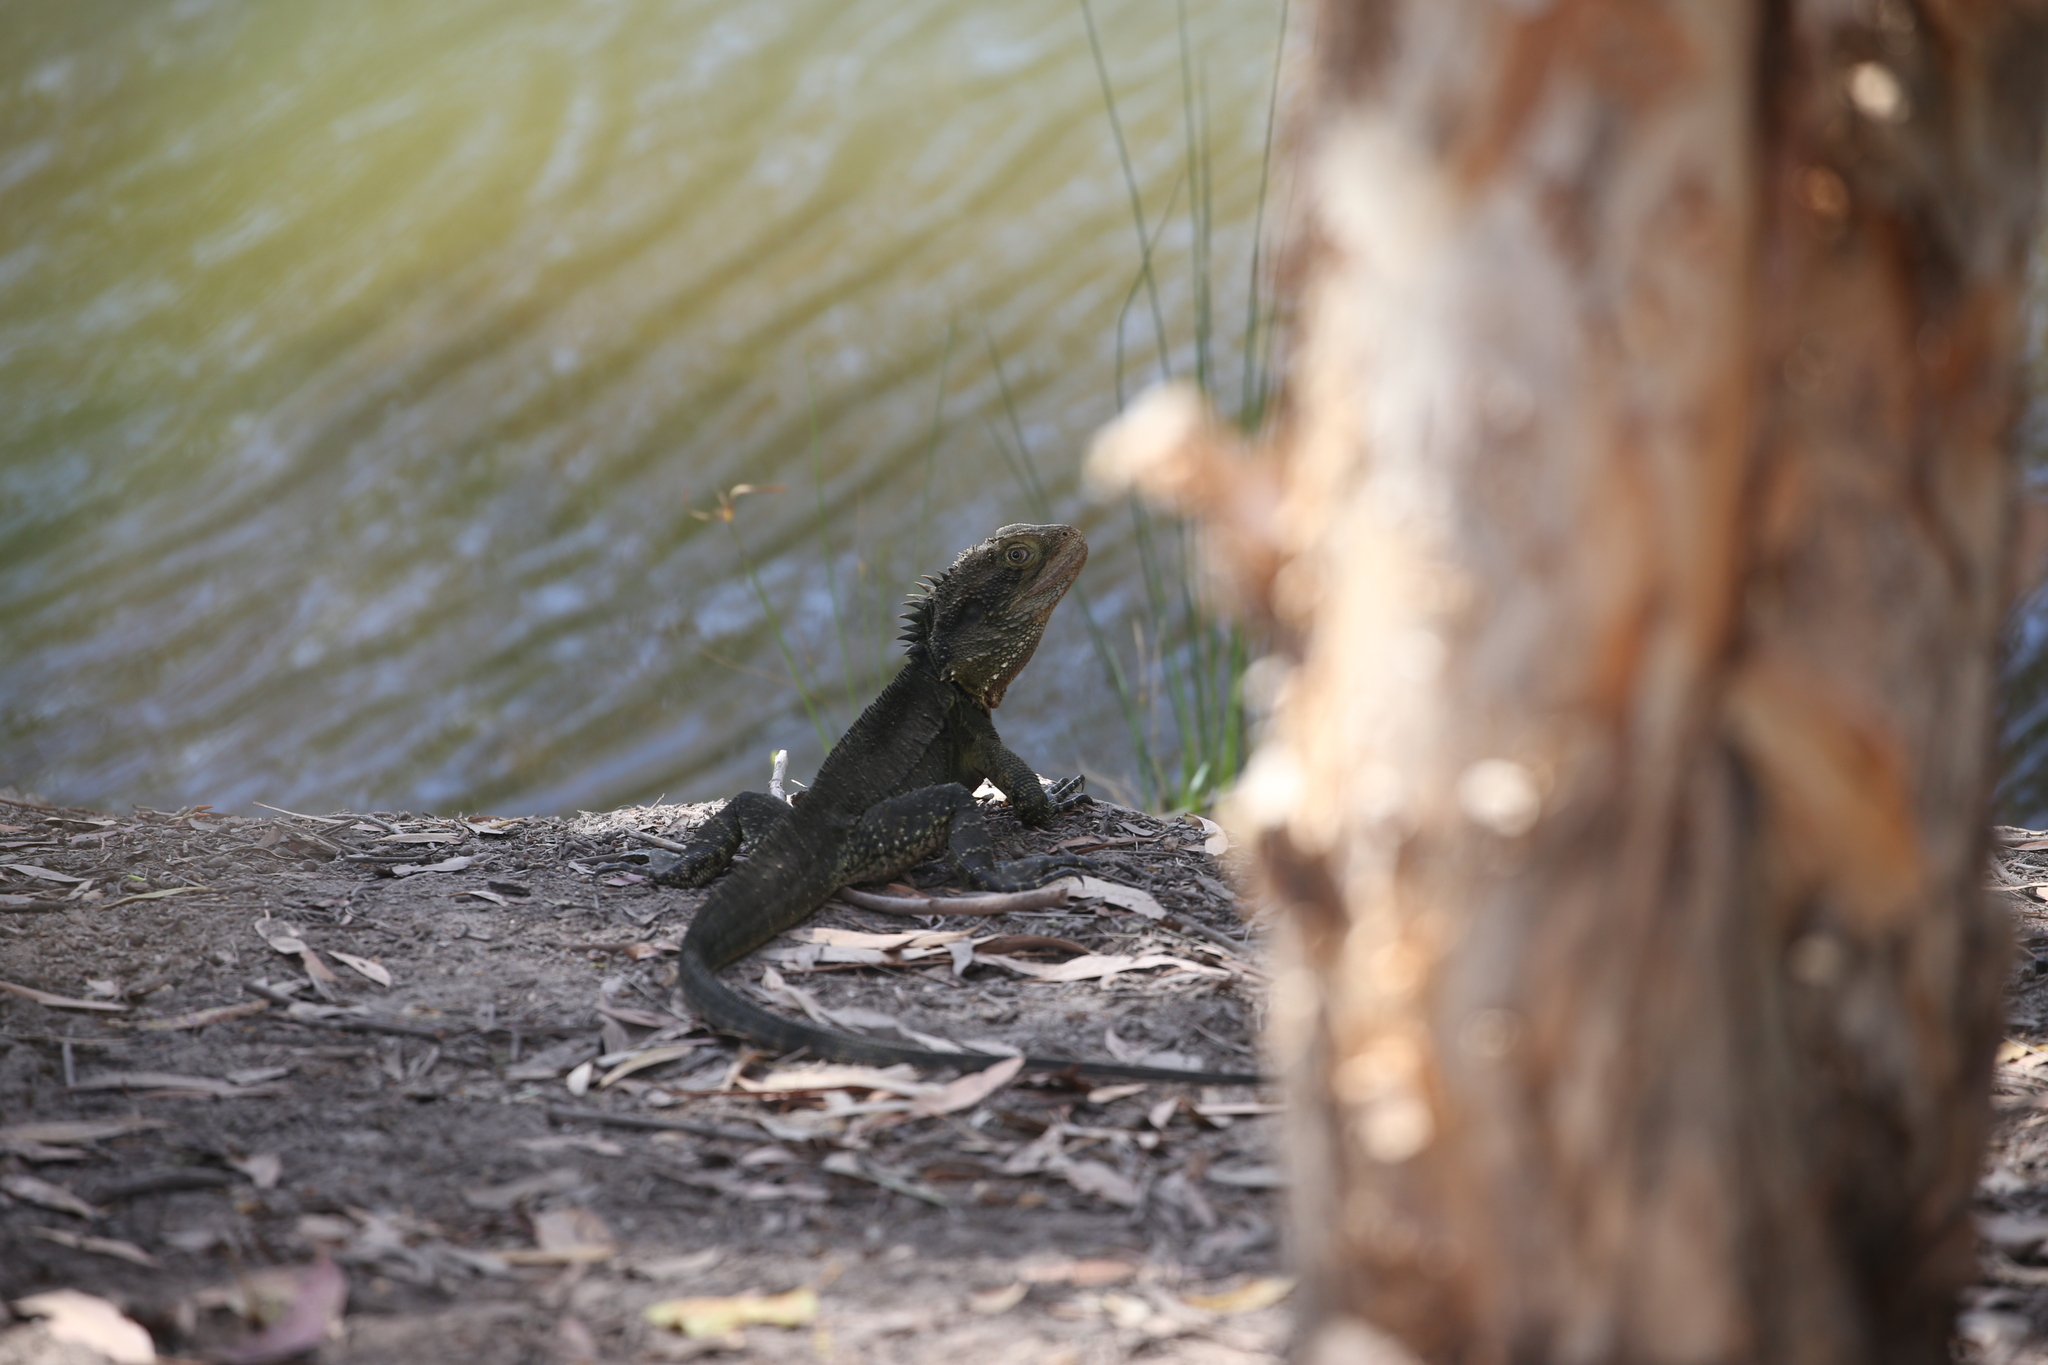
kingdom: Animalia
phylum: Chordata
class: Squamata
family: Agamidae
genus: Intellagama
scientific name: Intellagama lesueurii
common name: Eastern water dragon
